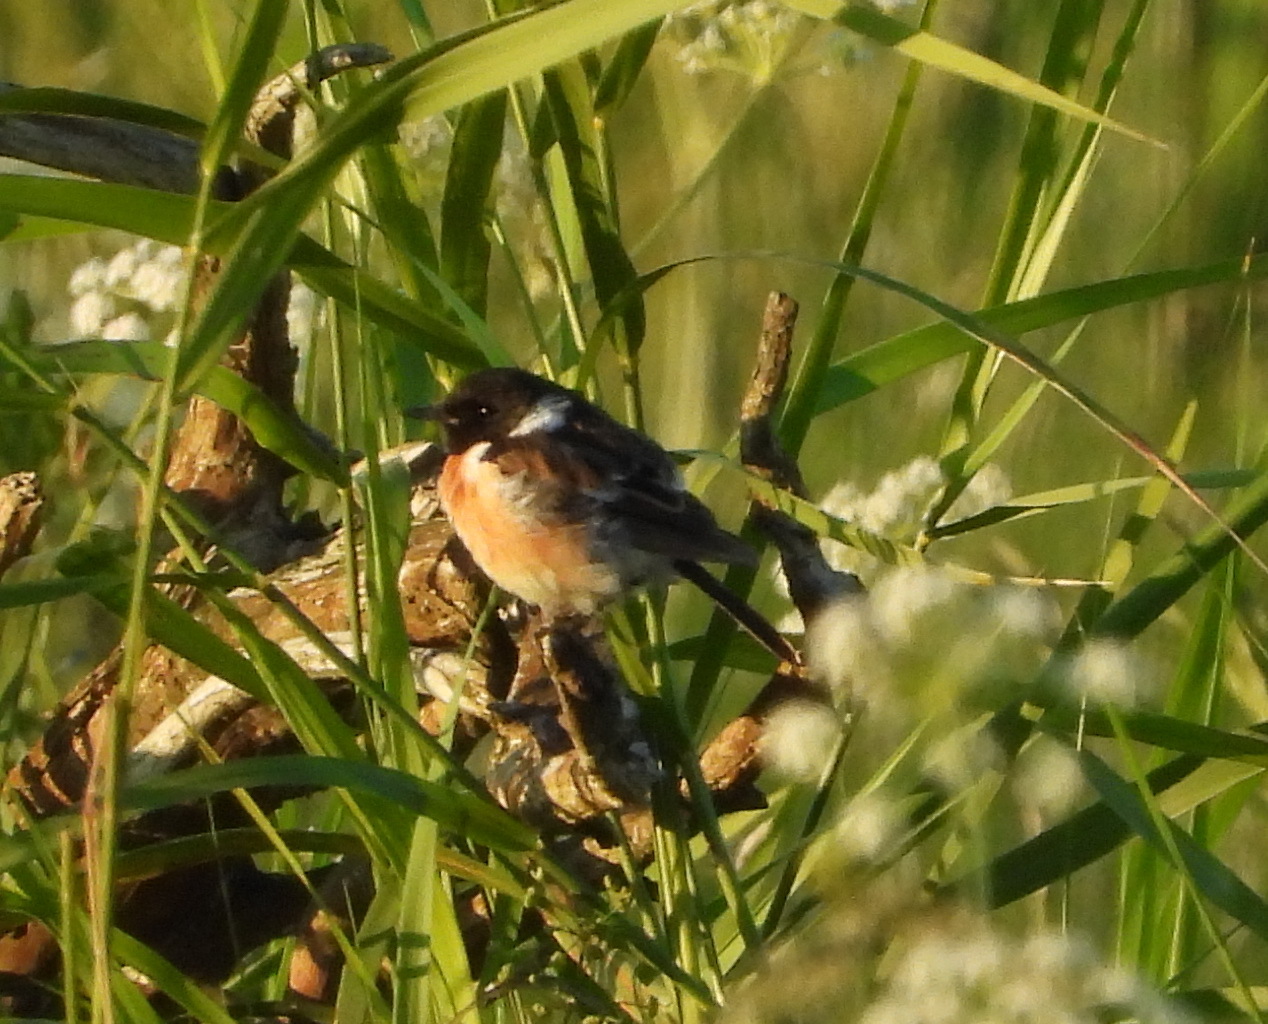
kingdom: Animalia
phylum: Chordata
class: Aves
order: Passeriformes
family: Muscicapidae
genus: Saxicola
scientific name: Saxicola maurus
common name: Siberian stonechat
